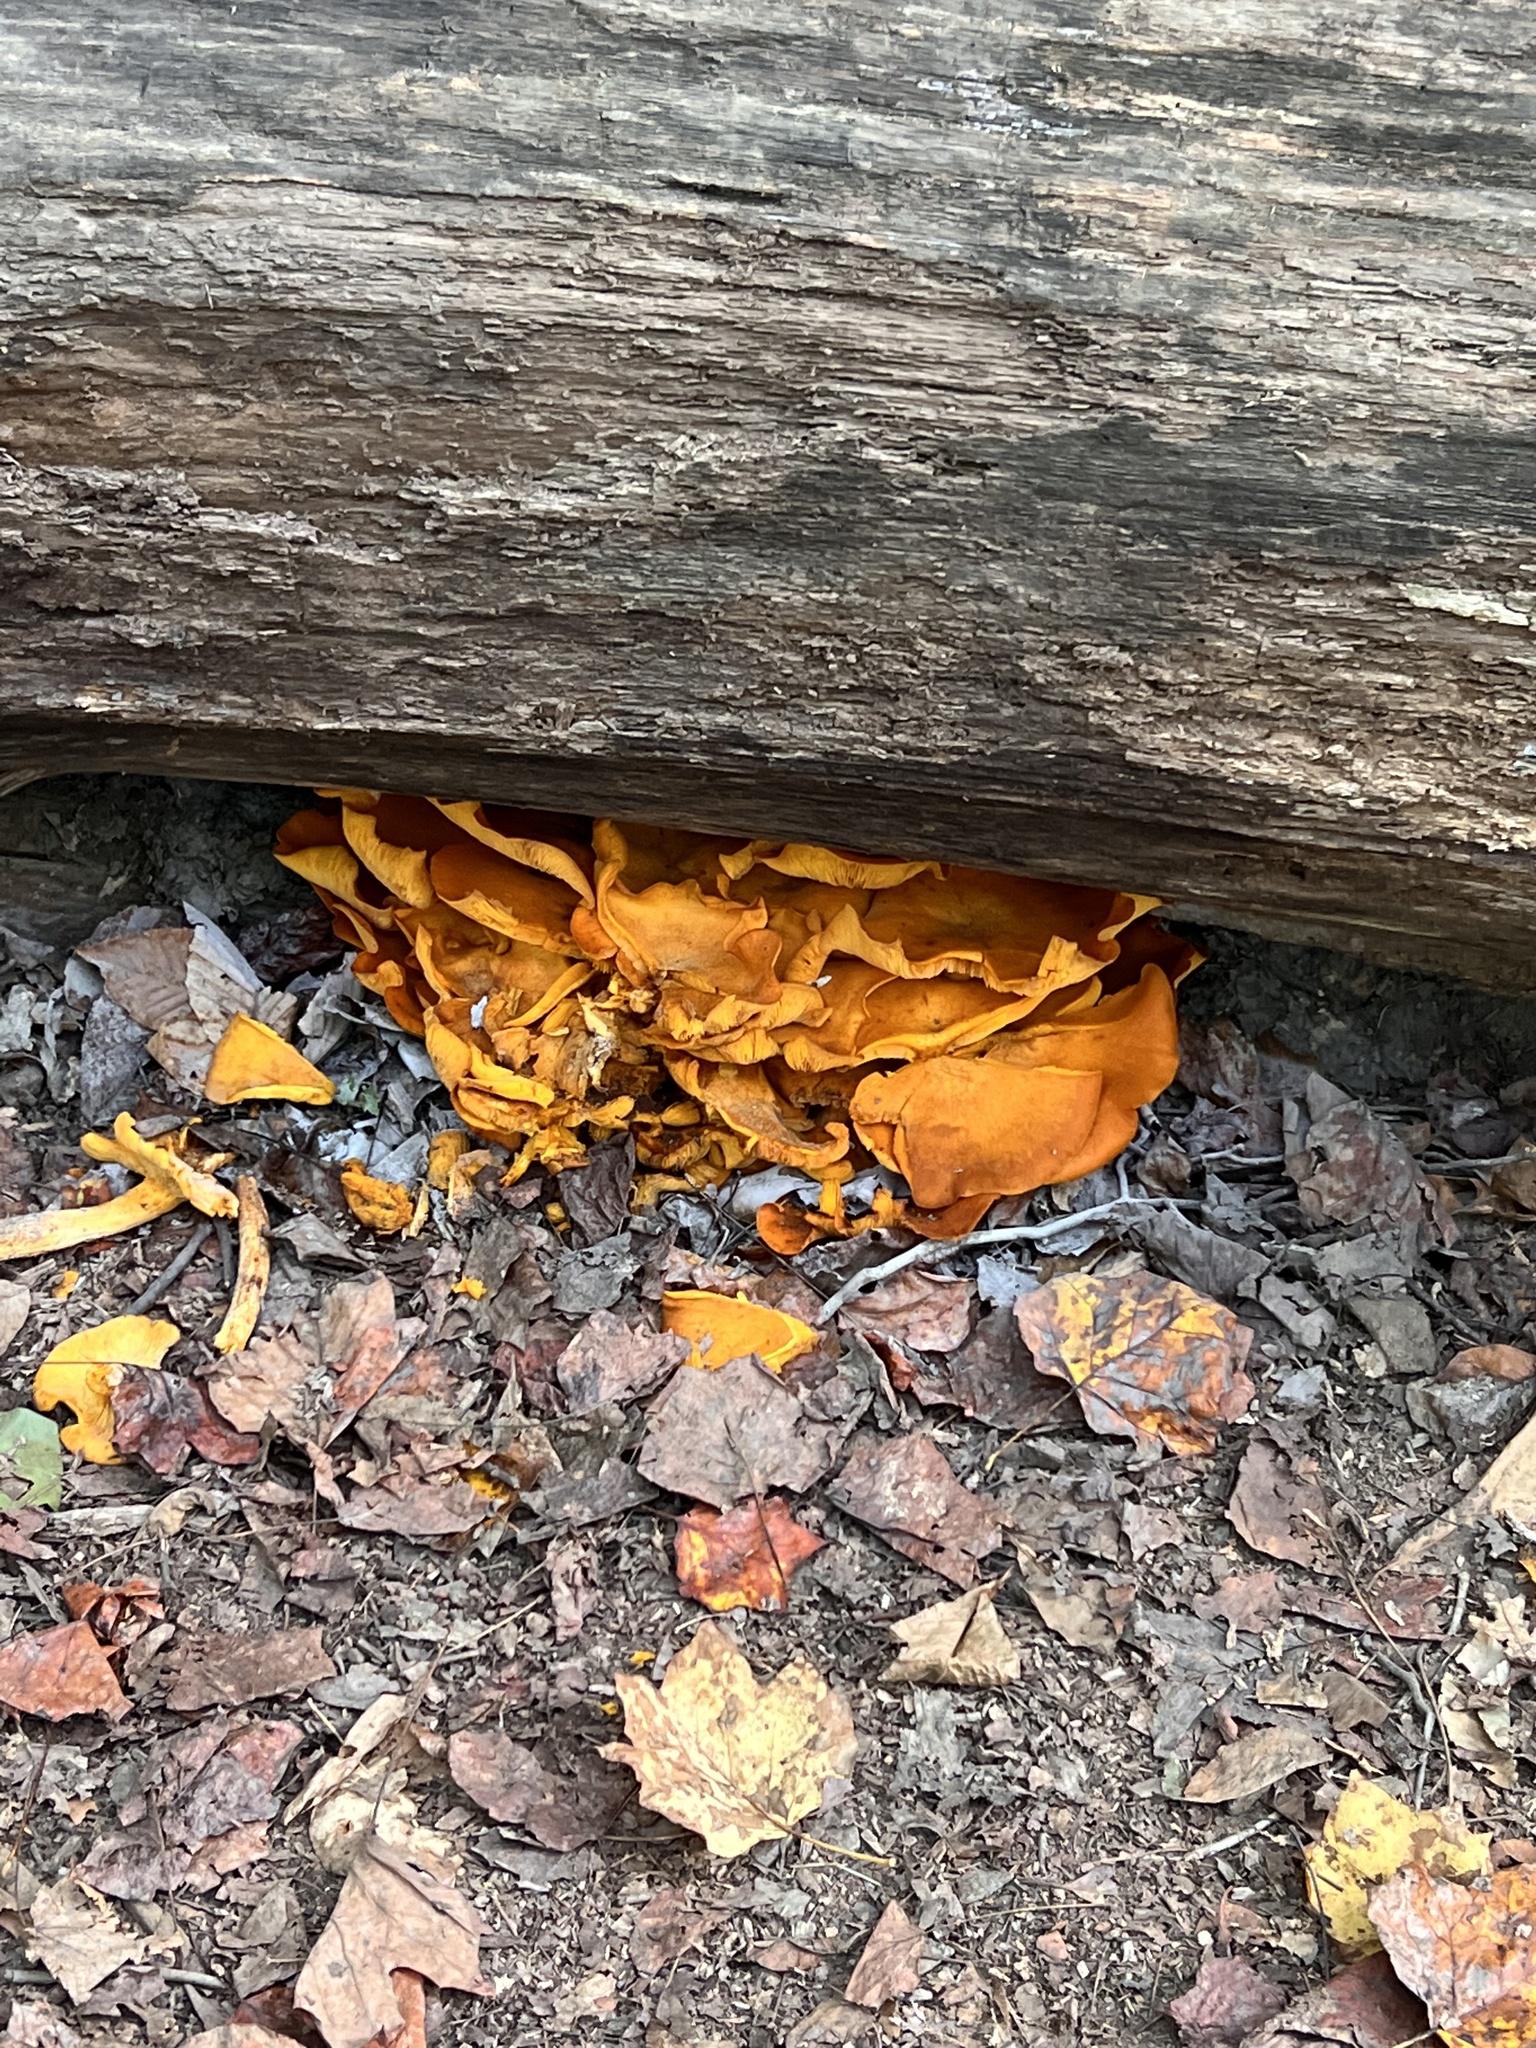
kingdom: Fungi
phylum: Basidiomycota
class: Agaricomycetes
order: Agaricales
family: Omphalotaceae
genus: Omphalotus
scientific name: Omphalotus illudens
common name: Jack o lantern
